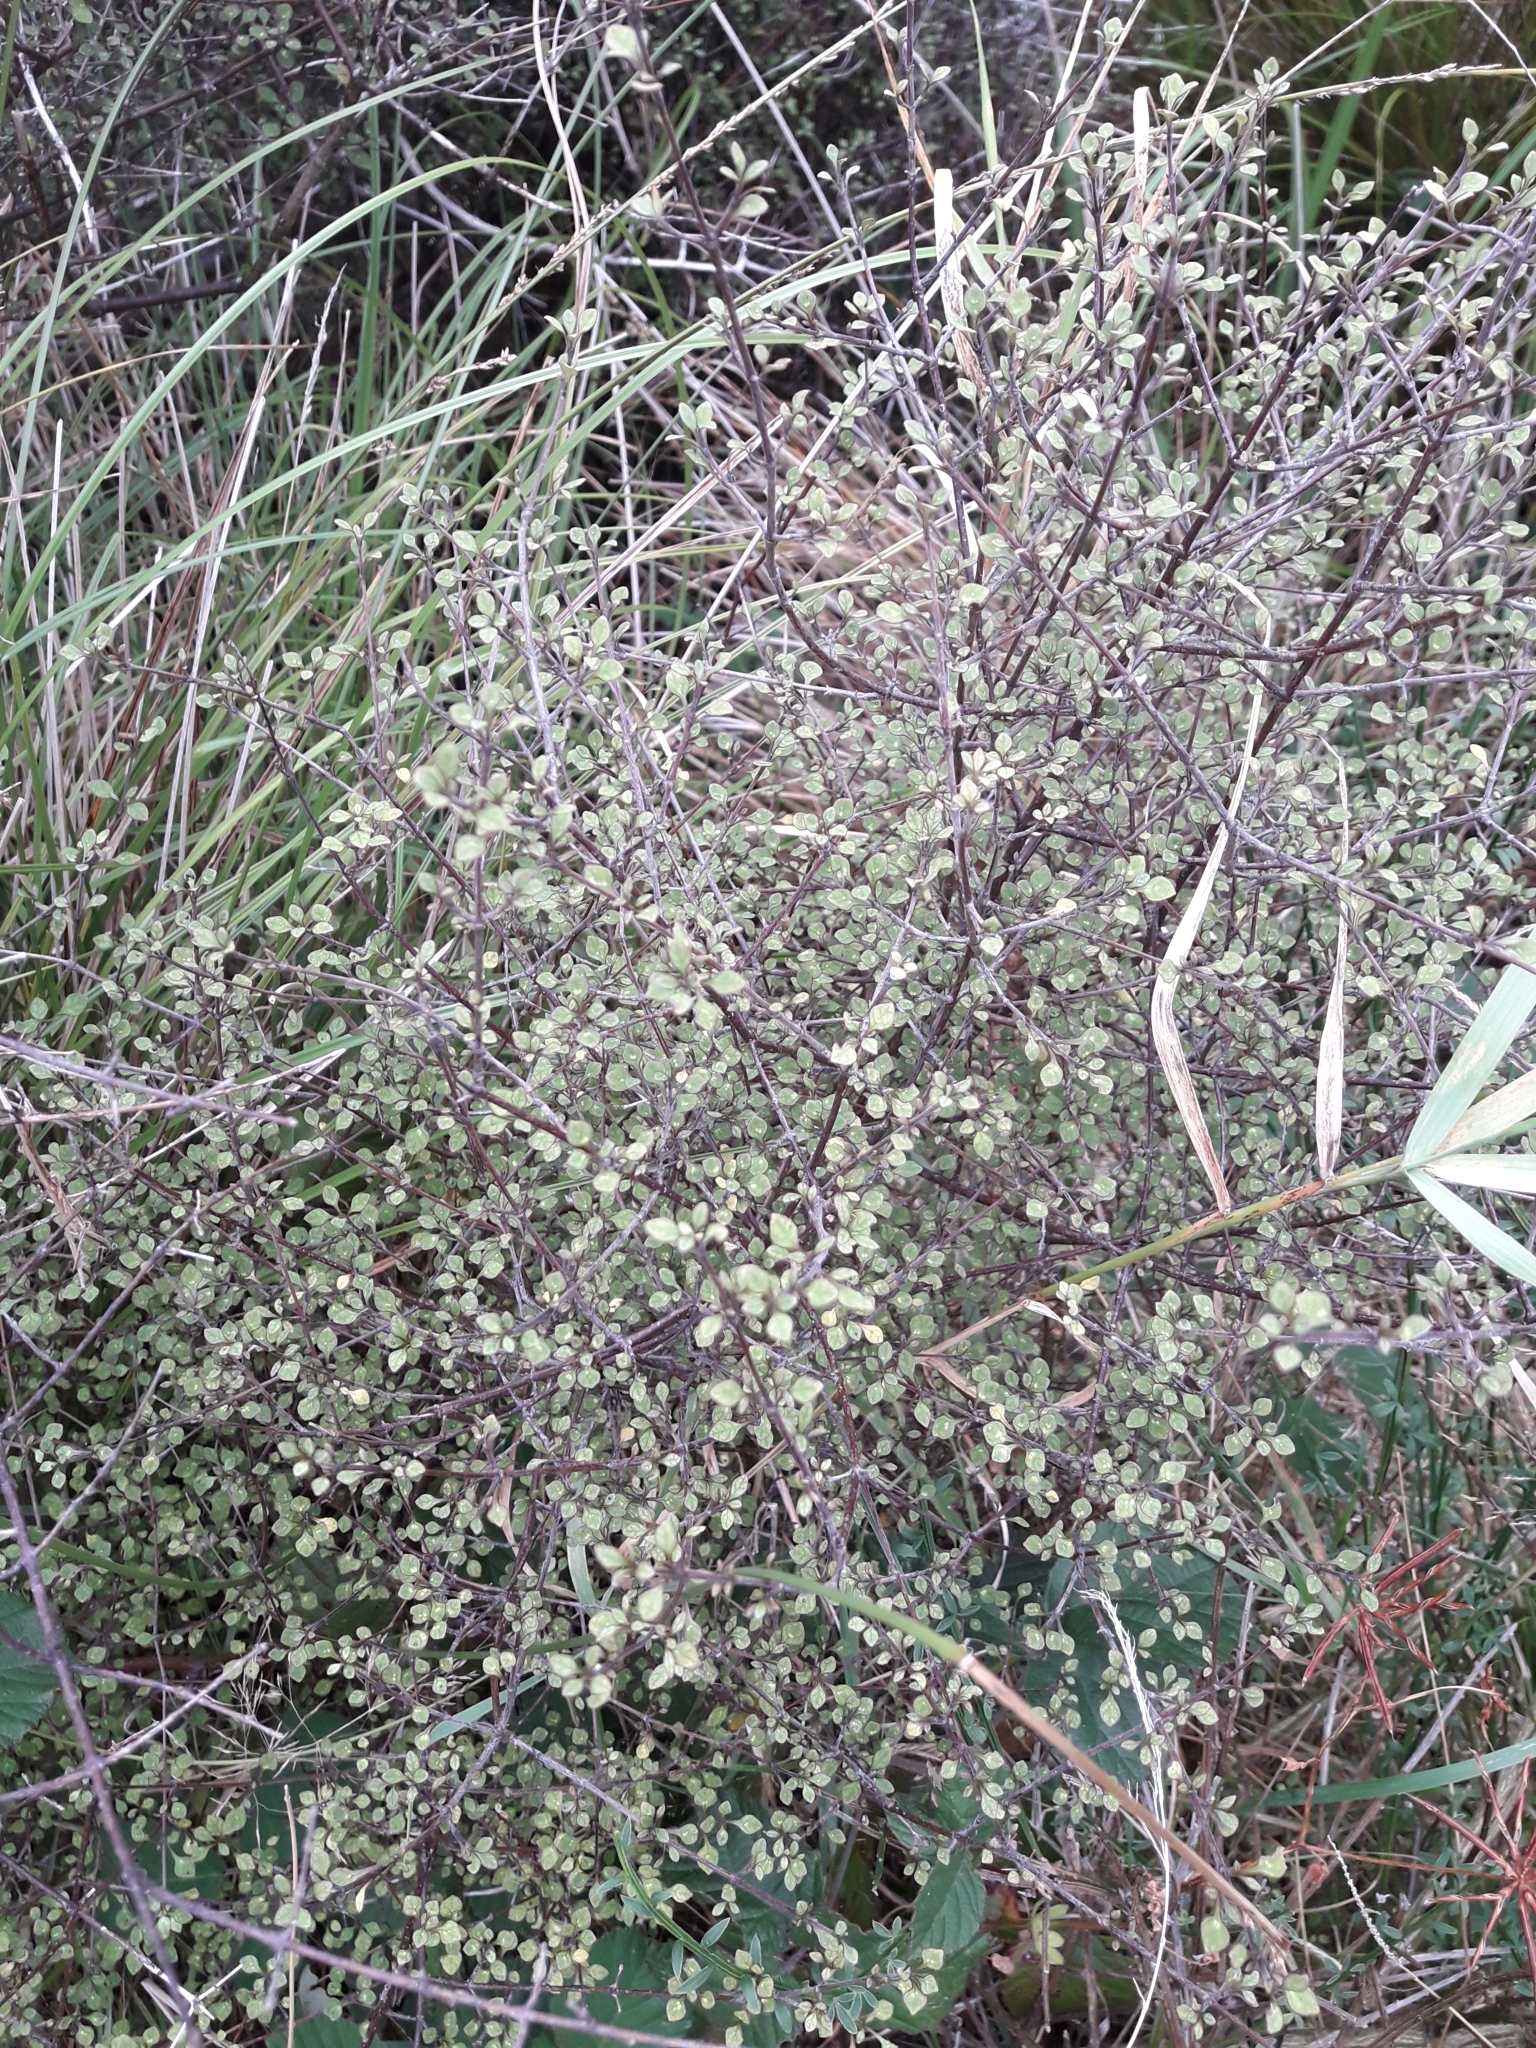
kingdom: Plantae
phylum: Tracheophyta
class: Magnoliopsida
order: Gentianales
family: Rubiaceae
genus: Coprosma
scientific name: Coprosma tenuicaulis
